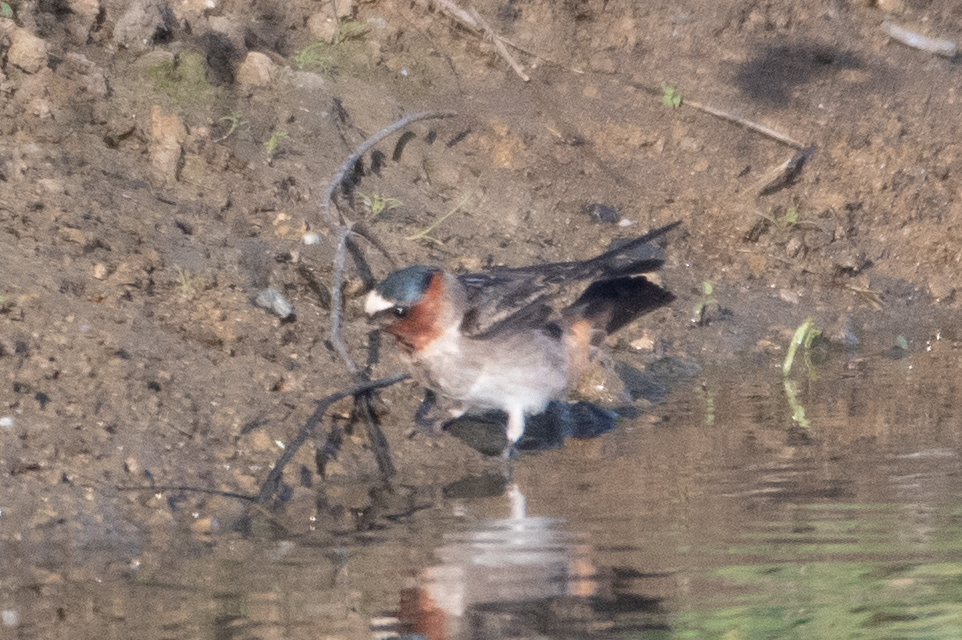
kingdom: Animalia
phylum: Chordata
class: Aves
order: Passeriformes
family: Hirundinidae
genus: Petrochelidon
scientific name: Petrochelidon pyrrhonota
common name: American cliff swallow
